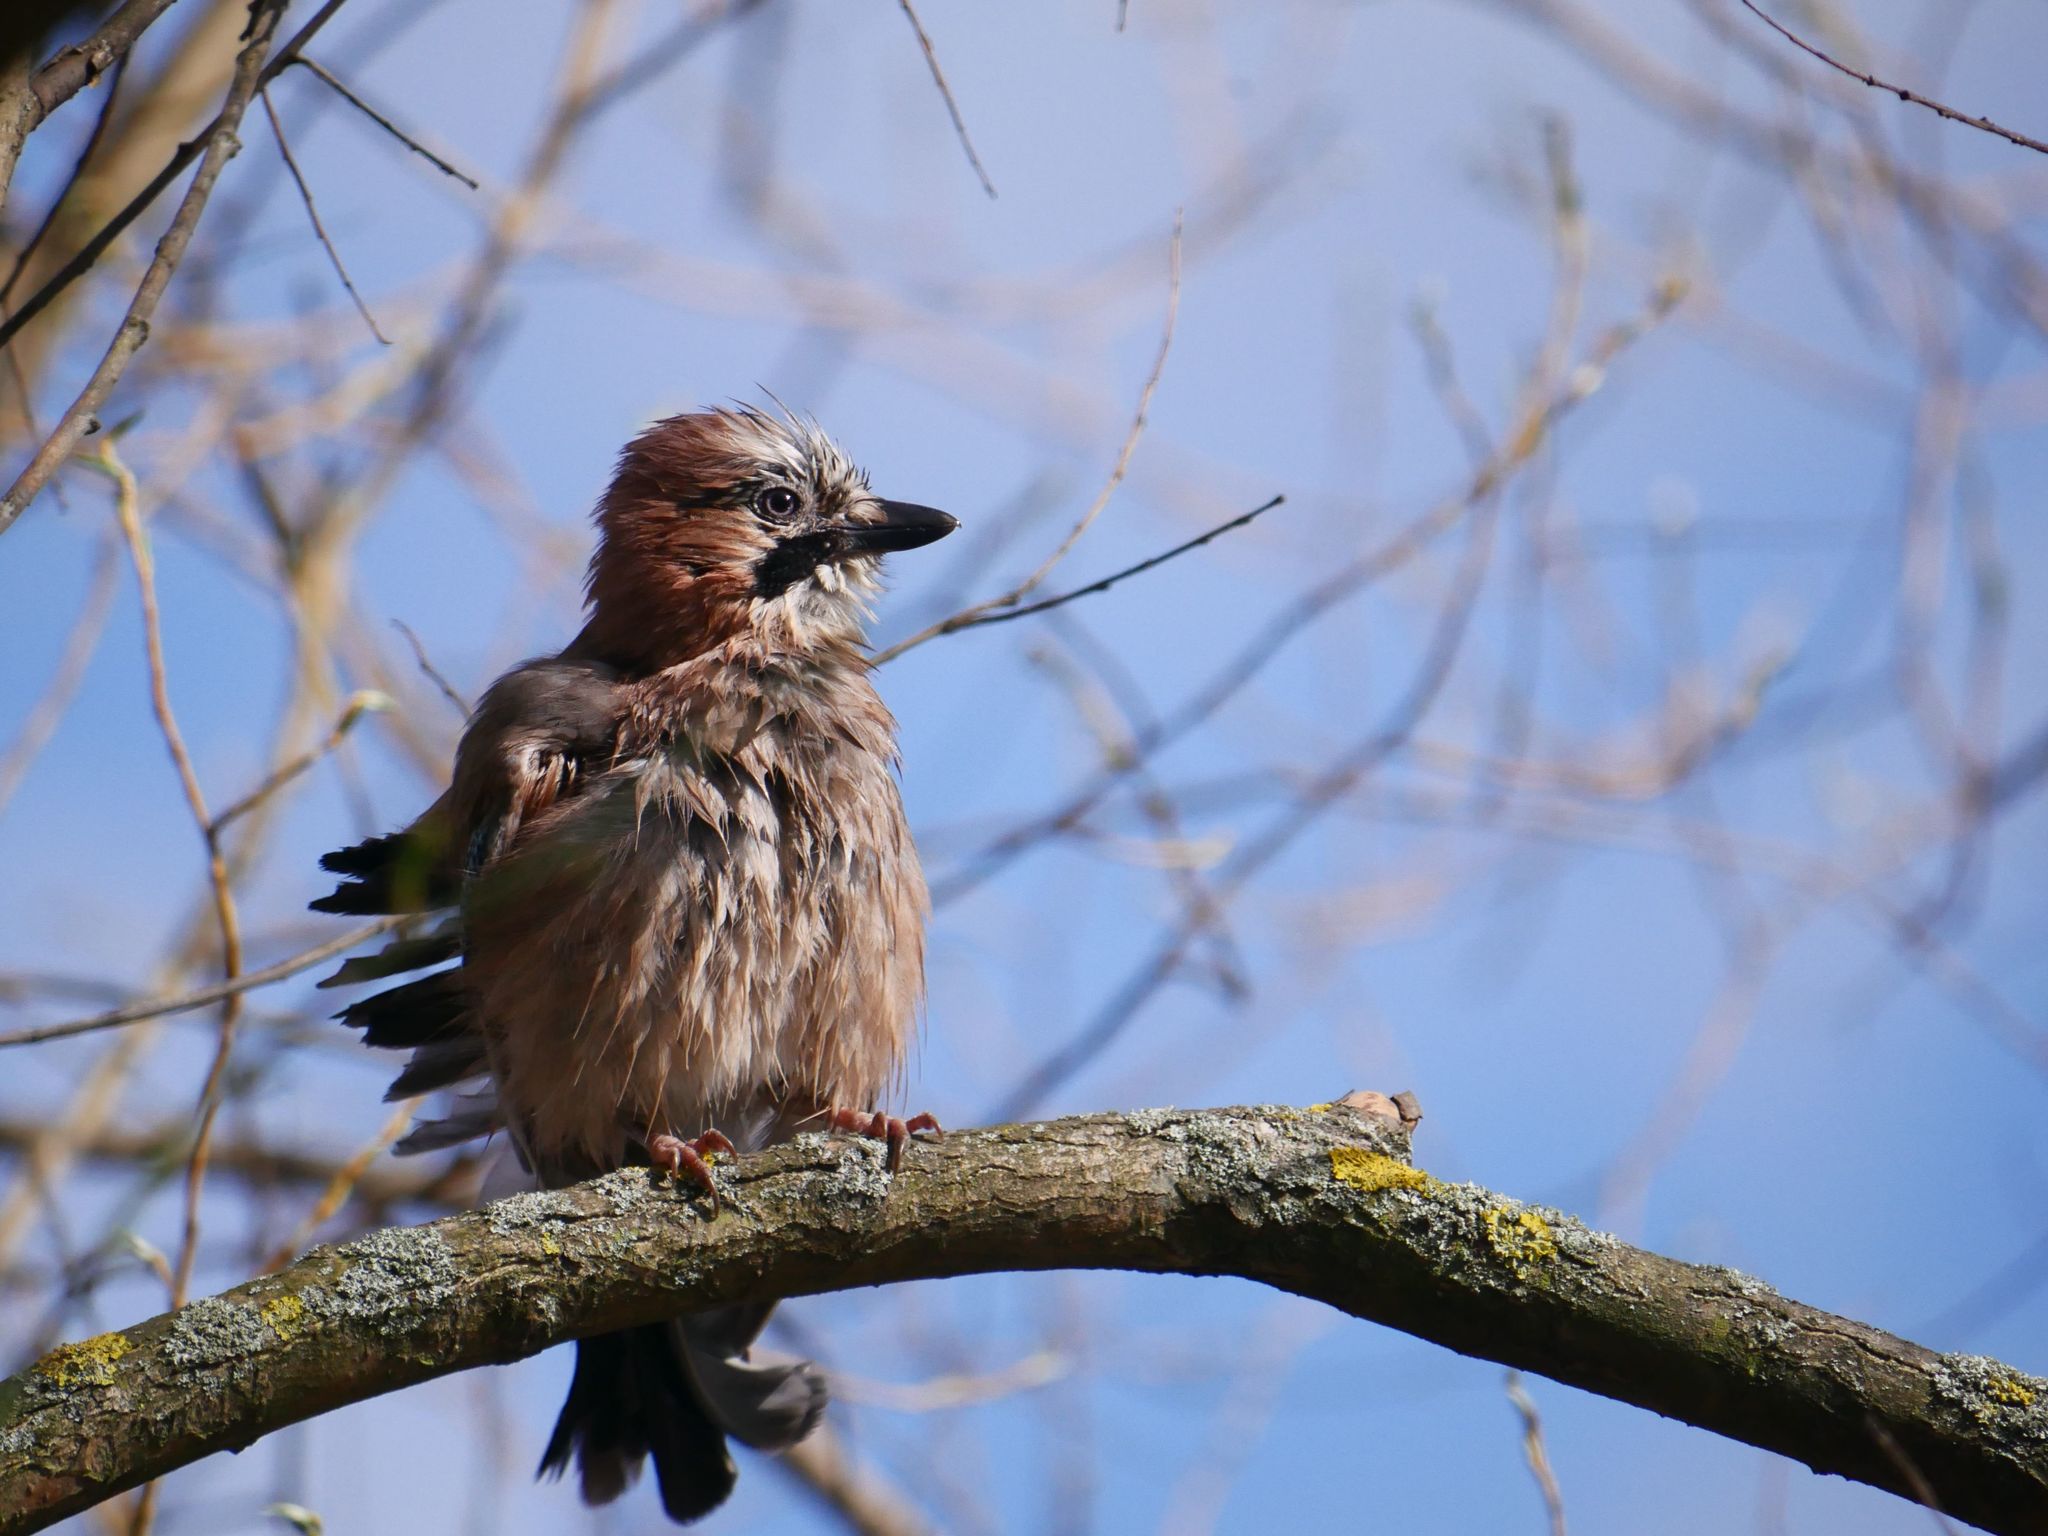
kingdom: Animalia
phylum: Chordata
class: Aves
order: Passeriformes
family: Corvidae
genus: Garrulus
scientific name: Garrulus glandarius
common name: Eurasian jay
